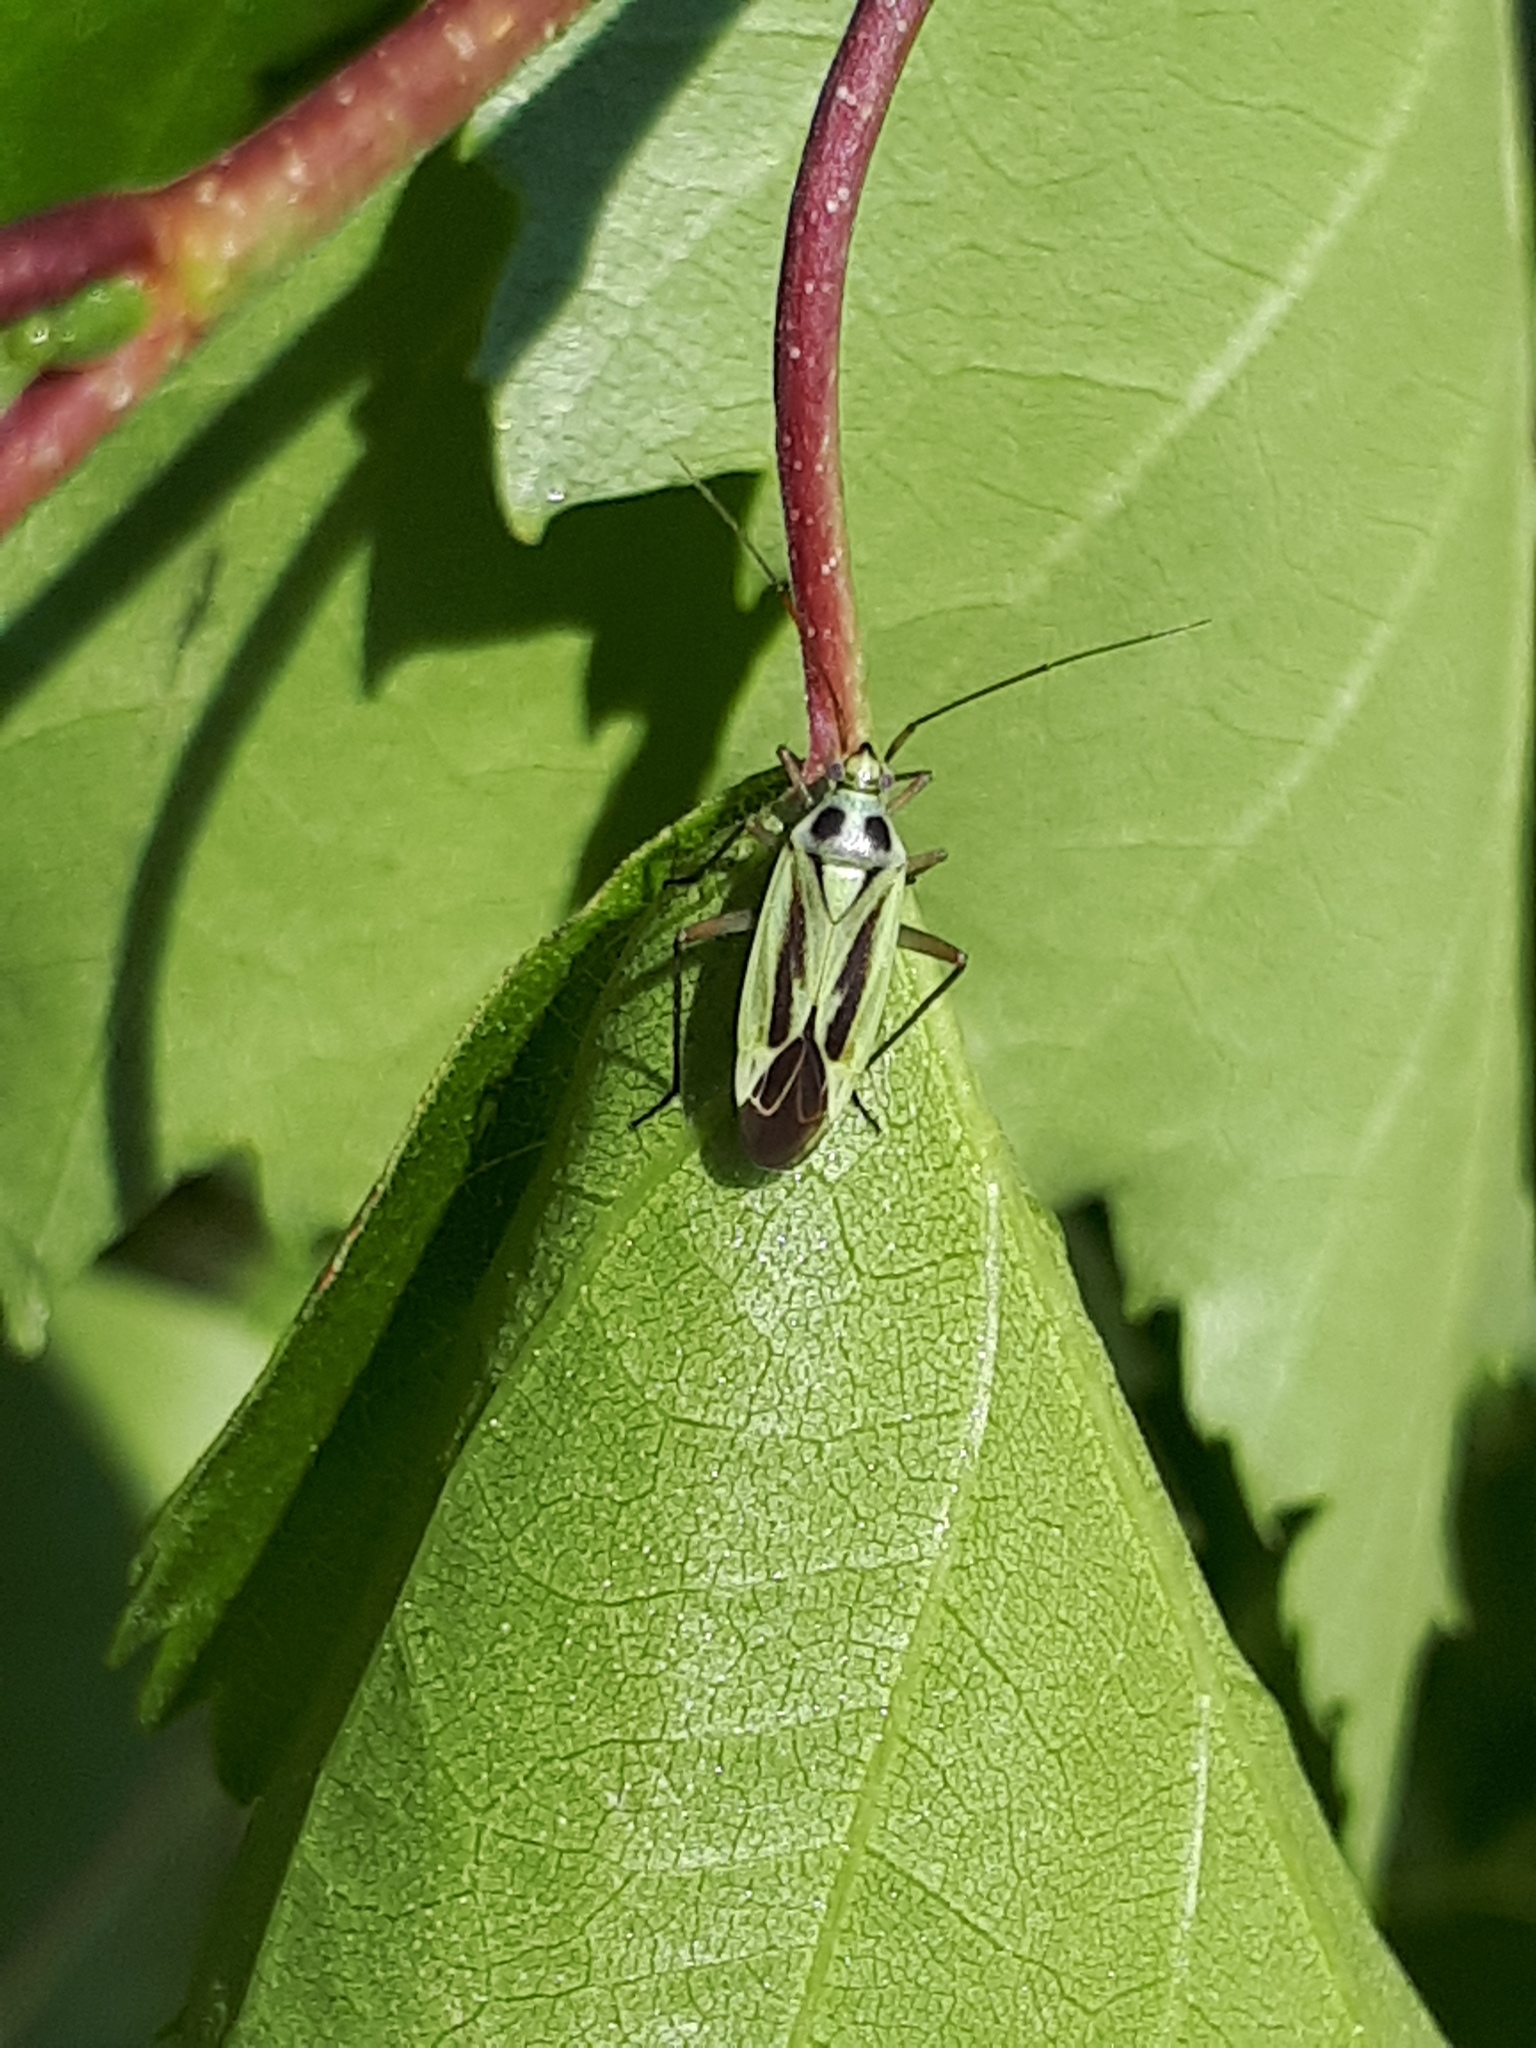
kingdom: Animalia
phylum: Arthropoda
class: Insecta
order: Hemiptera
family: Miridae
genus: Stenotus
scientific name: Stenotus binotatus
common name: Plant bug
